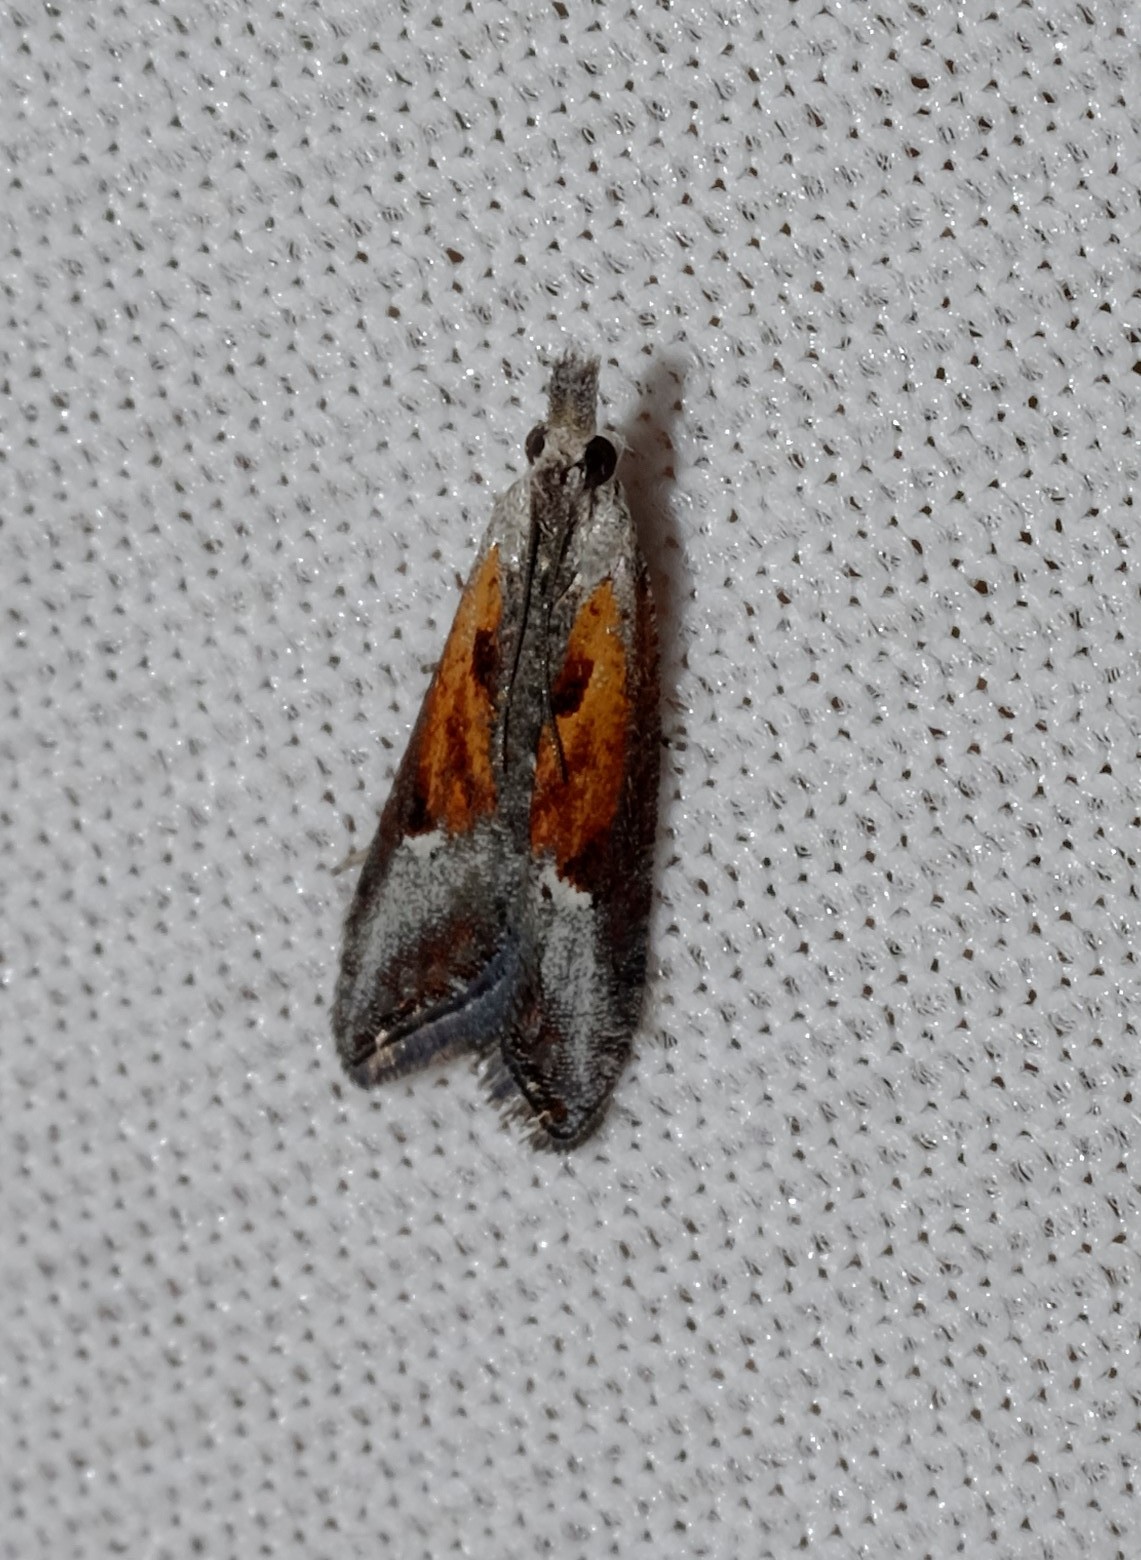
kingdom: Animalia
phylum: Arthropoda
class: Insecta
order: Lepidoptera
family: Tortricidae
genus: Peraglyphis
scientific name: Peraglyphis scepasta
